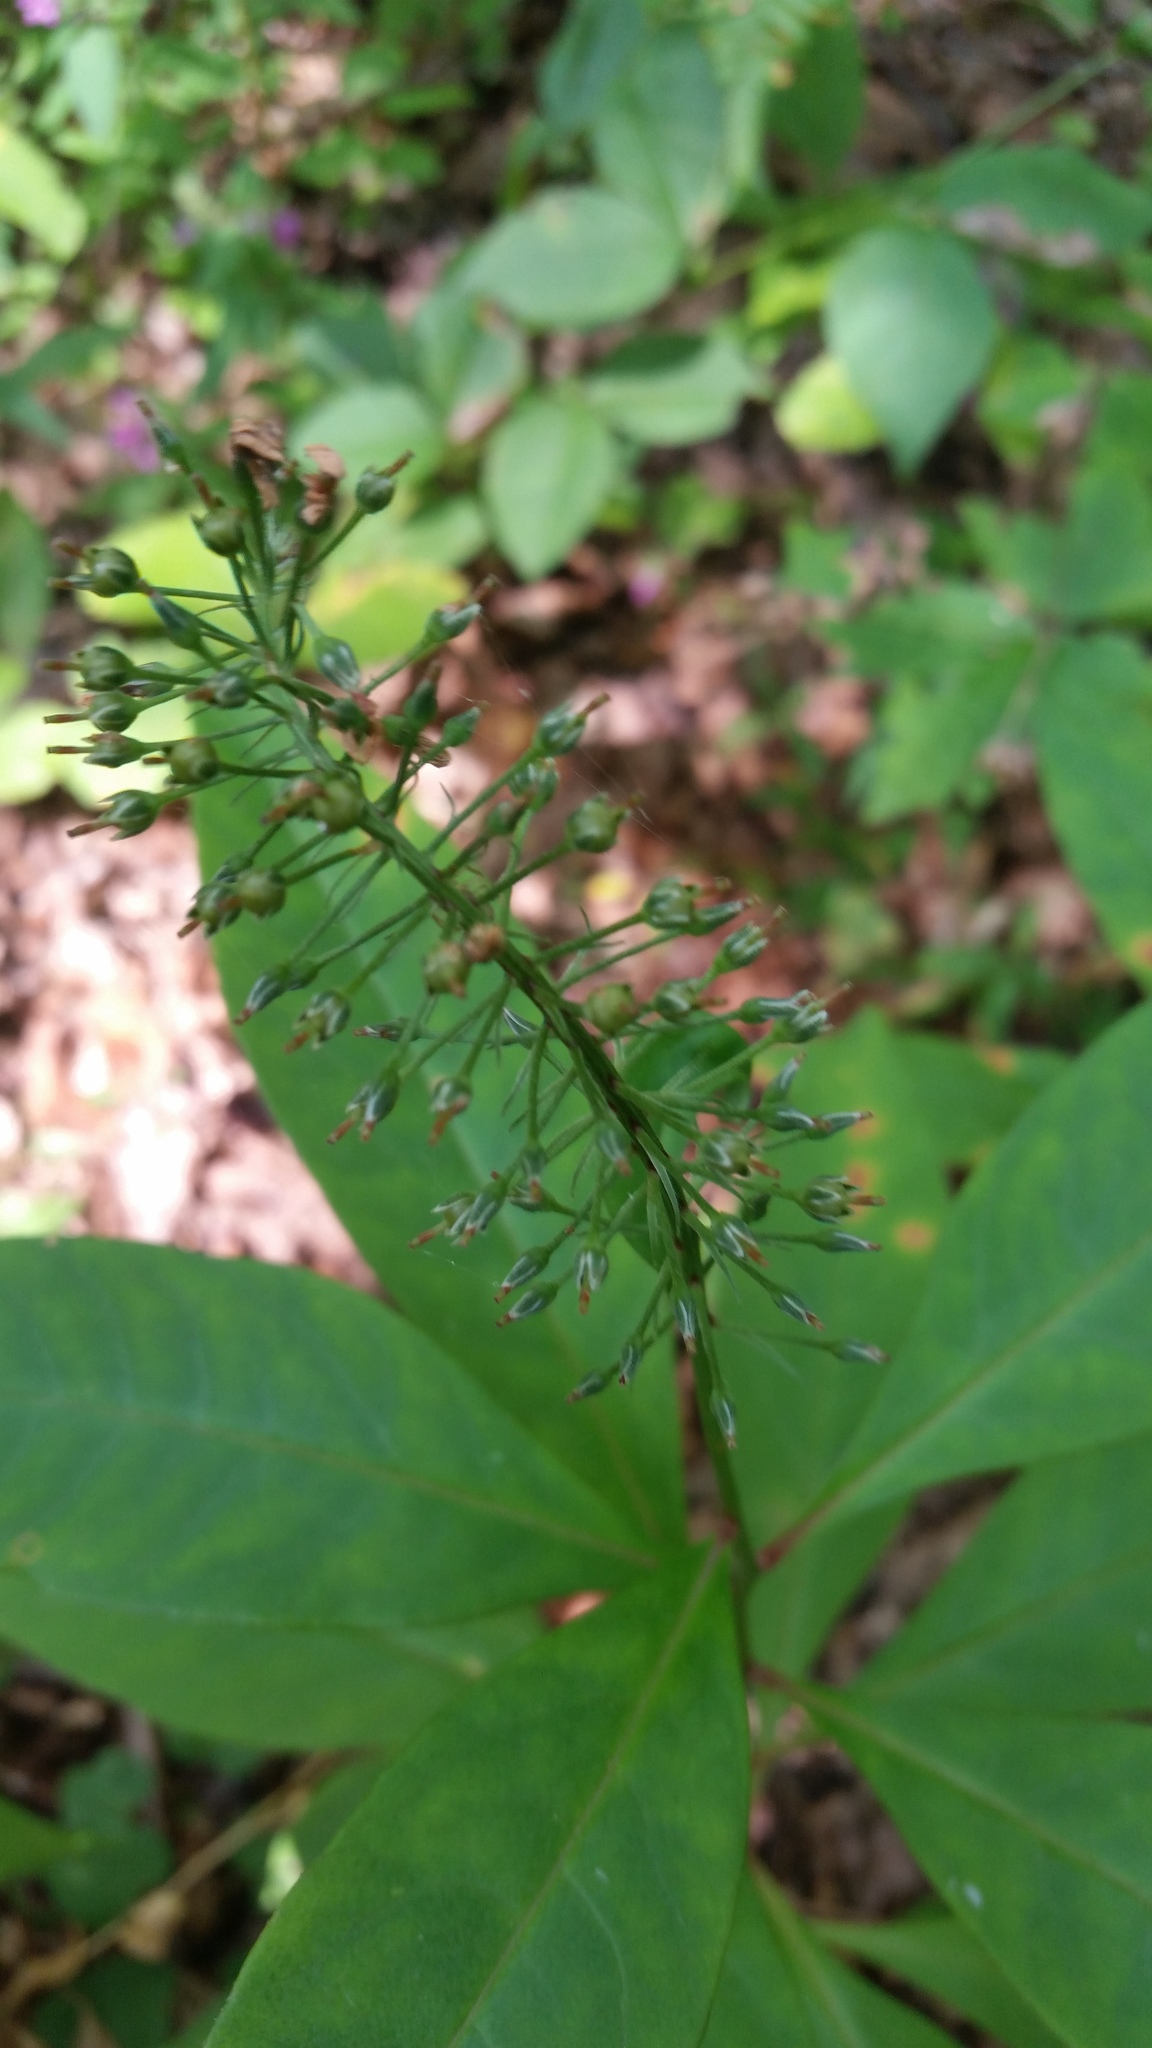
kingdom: Plantae
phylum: Tracheophyta
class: Magnoliopsida
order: Ericales
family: Primulaceae
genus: Lysimachia
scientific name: Lysimachia clethroides
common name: Gooseneck loosestrife
